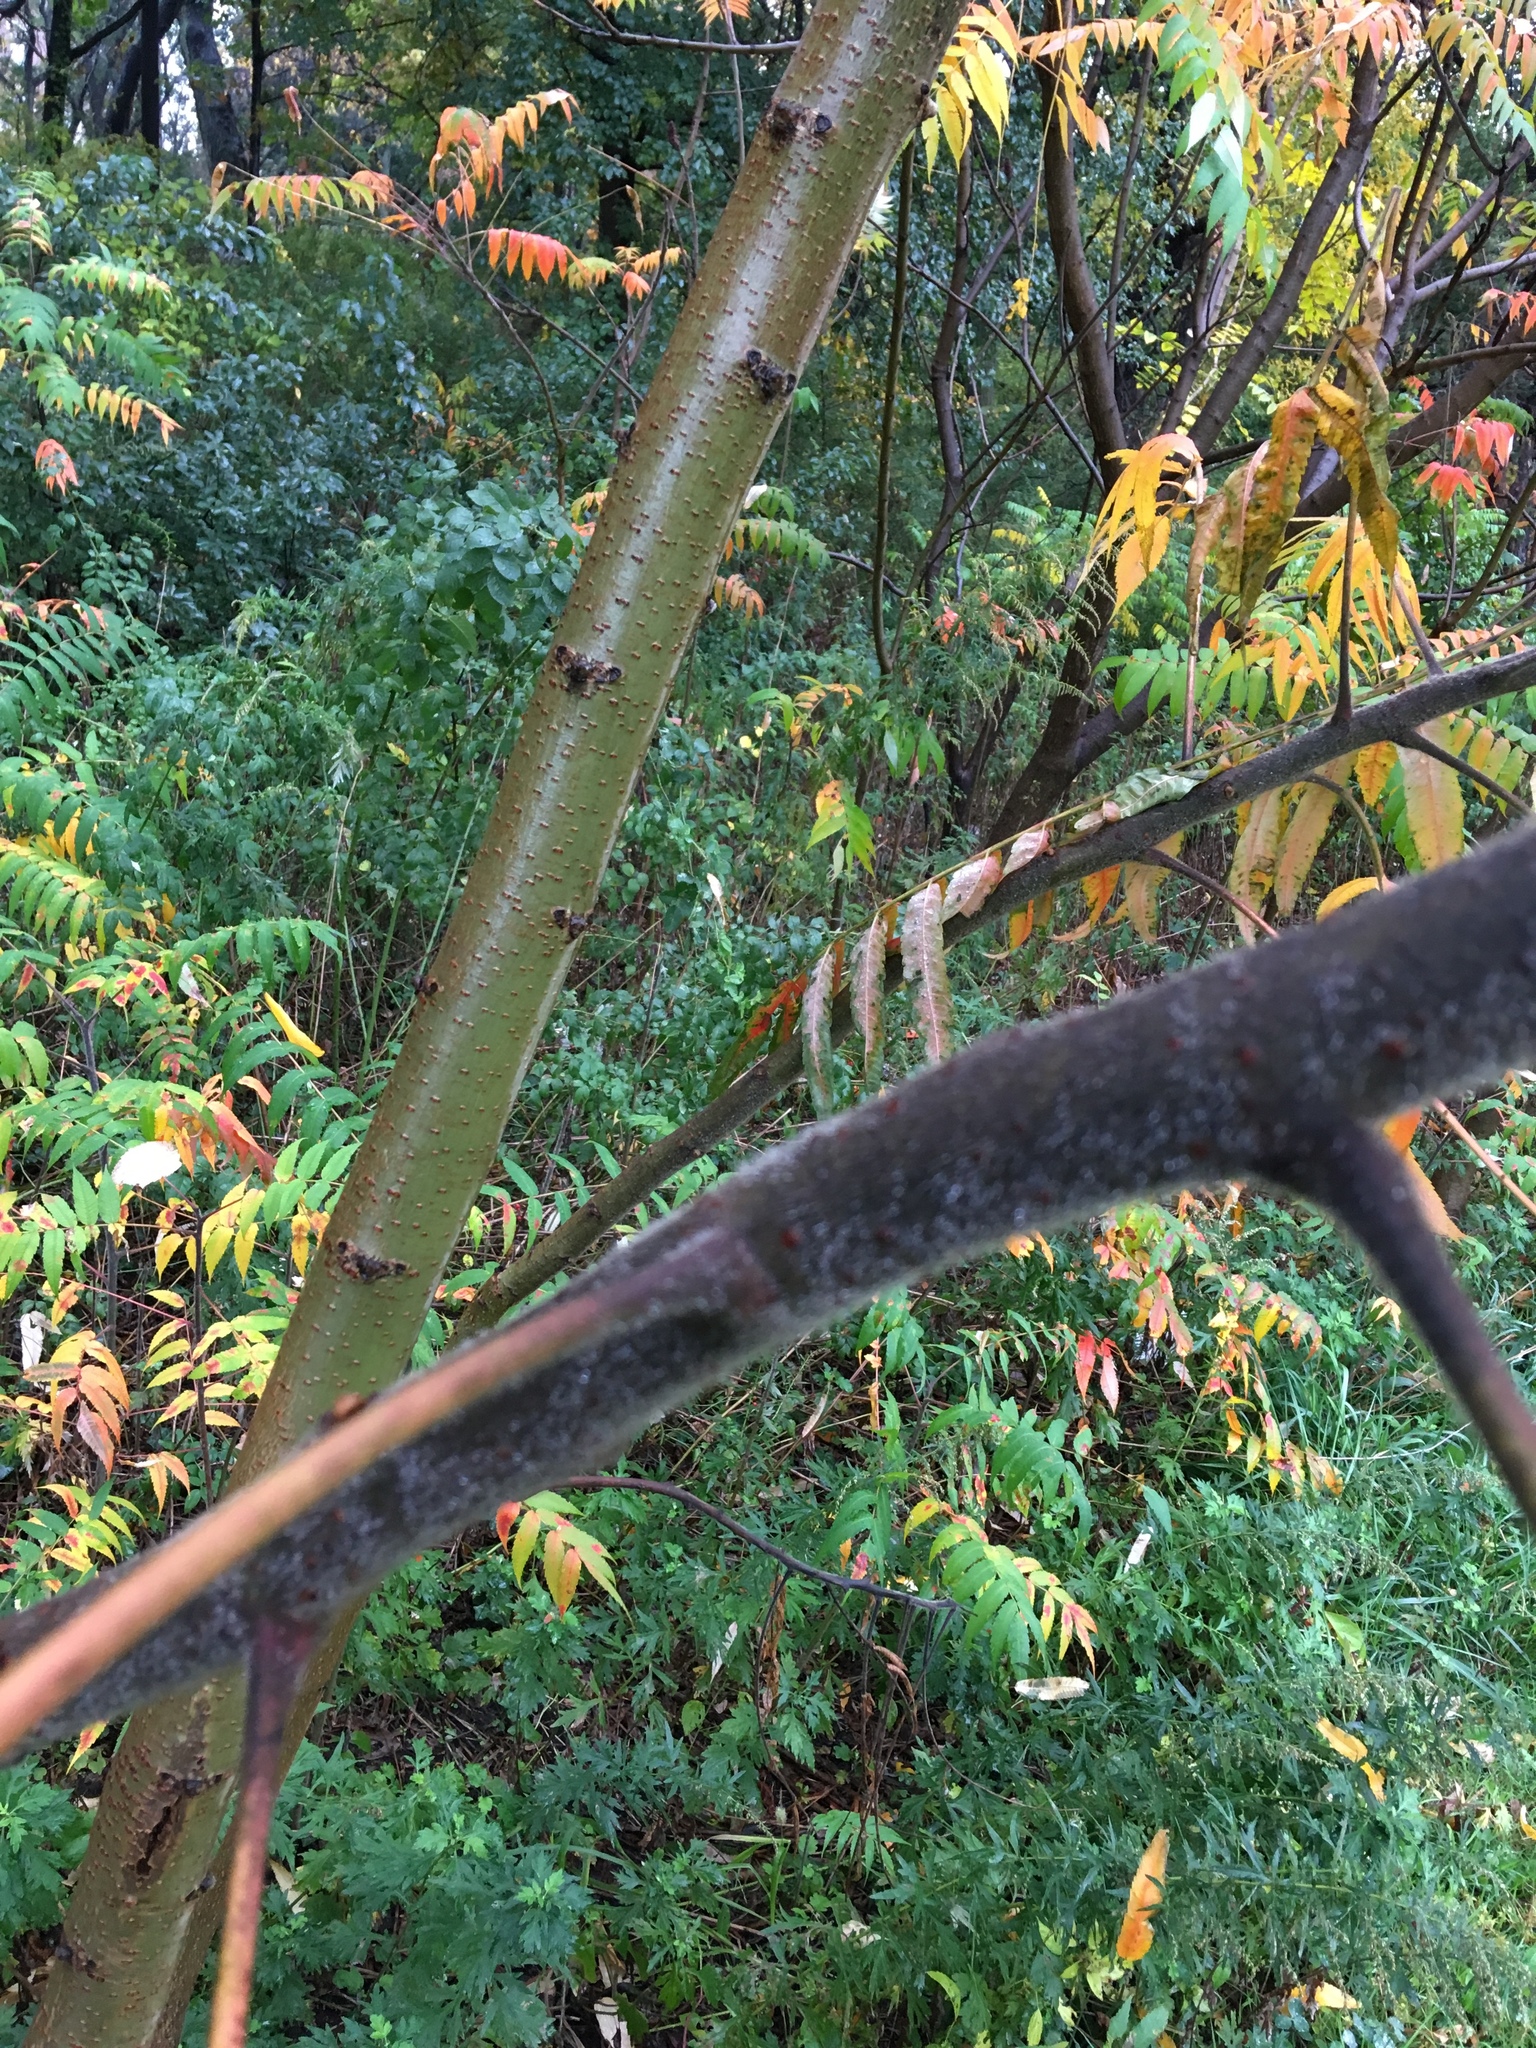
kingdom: Plantae
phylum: Tracheophyta
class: Magnoliopsida
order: Sapindales
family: Anacardiaceae
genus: Rhus
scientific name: Rhus typhina
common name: Staghorn sumac
